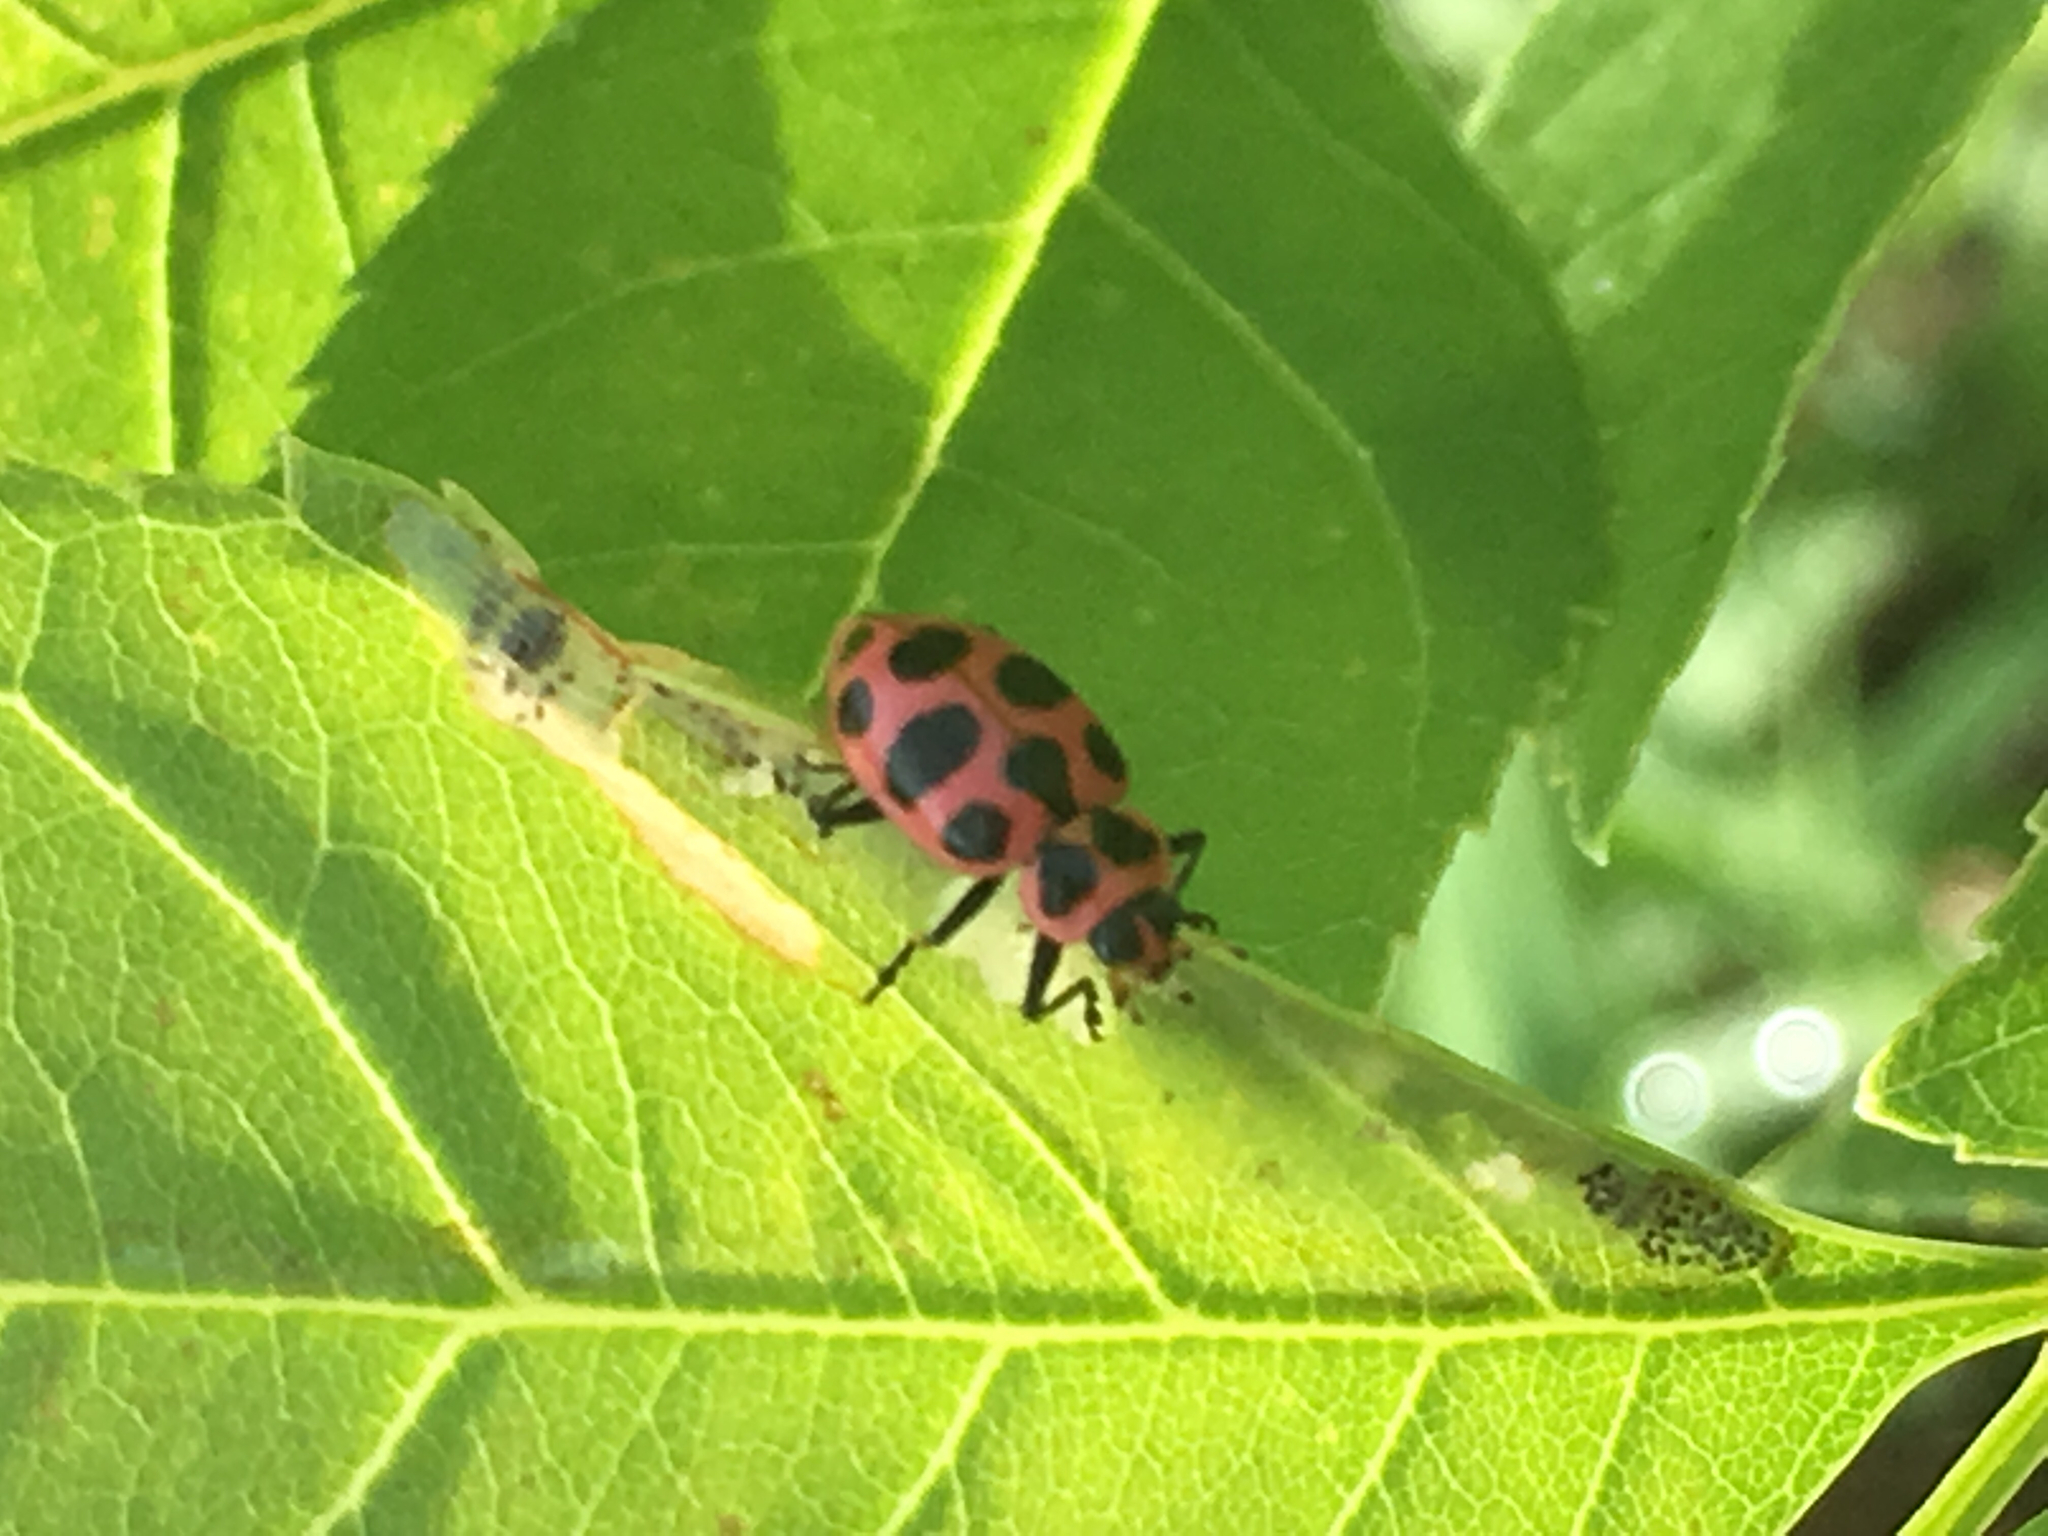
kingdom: Animalia
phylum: Arthropoda
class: Insecta
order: Coleoptera
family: Coccinellidae
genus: Coleomegilla
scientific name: Coleomegilla maculata
